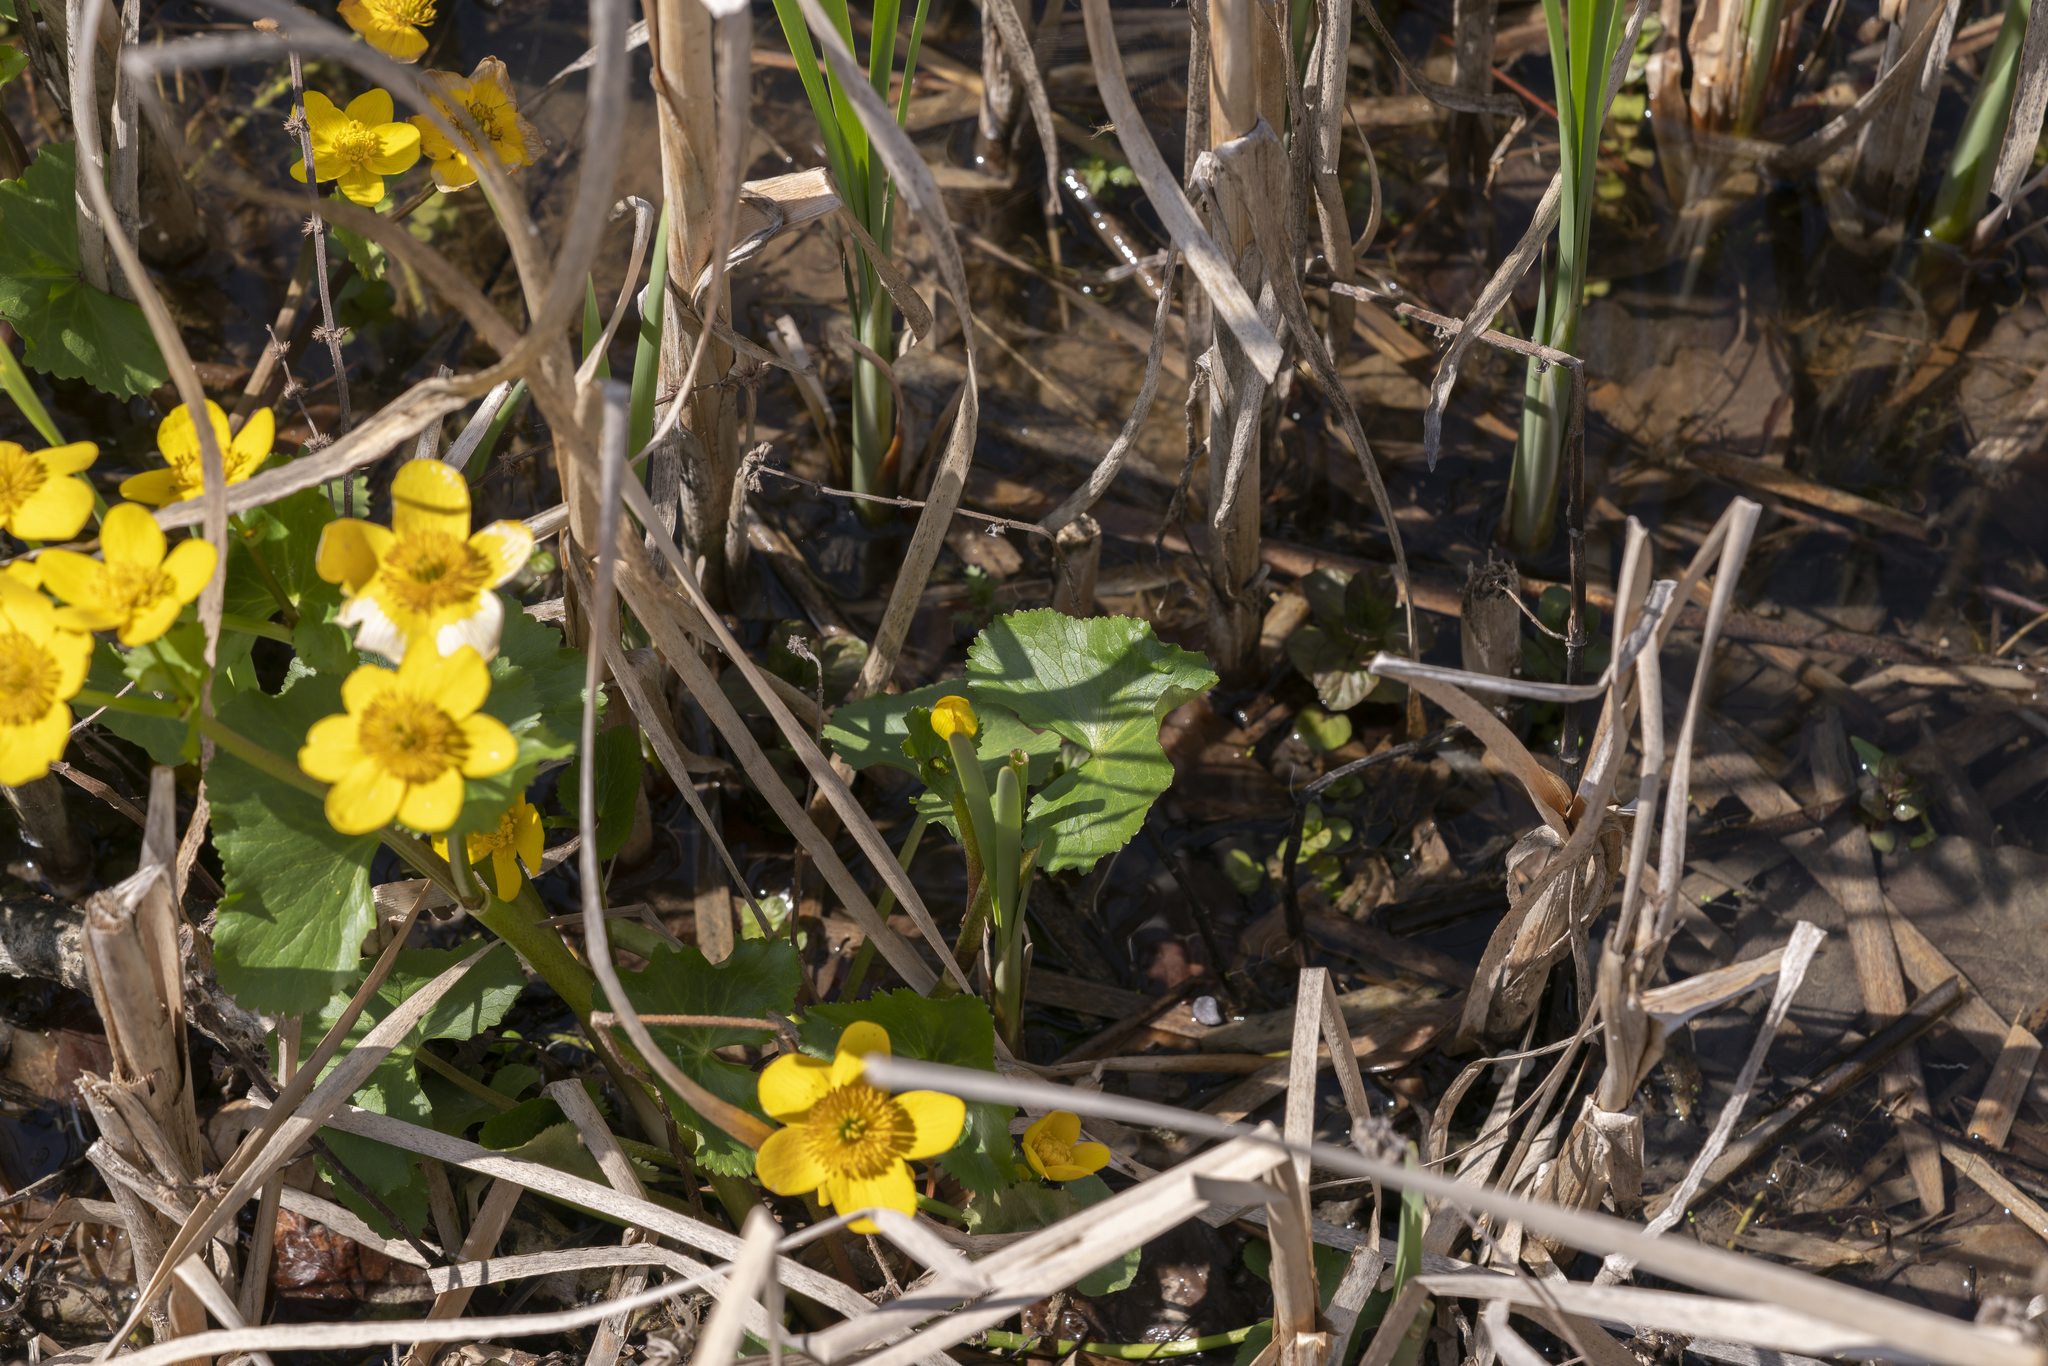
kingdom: Plantae
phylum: Tracheophyta
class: Magnoliopsida
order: Ranunculales
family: Ranunculaceae
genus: Caltha
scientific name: Caltha palustris
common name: Marsh marigold
